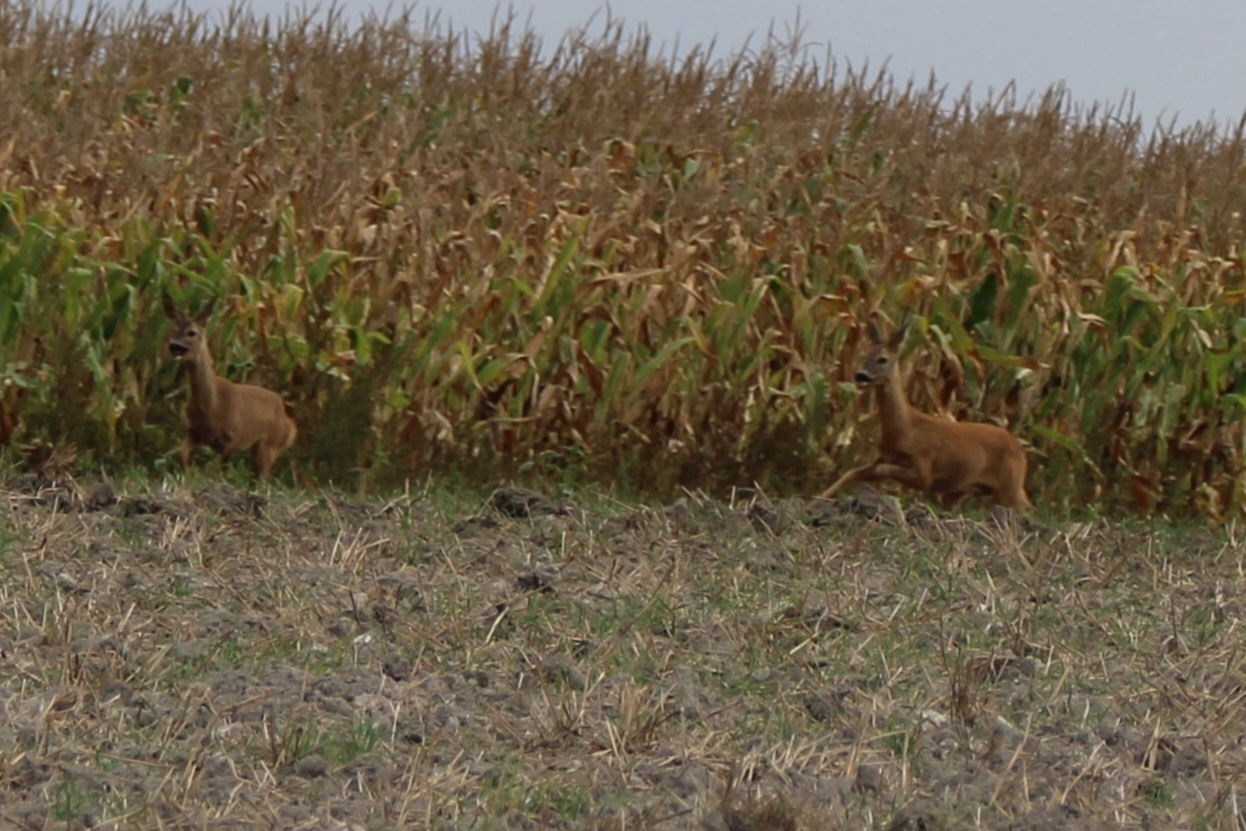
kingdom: Animalia
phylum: Chordata
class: Mammalia
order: Artiodactyla
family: Cervidae
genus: Capreolus
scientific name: Capreolus capreolus
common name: Western roe deer
